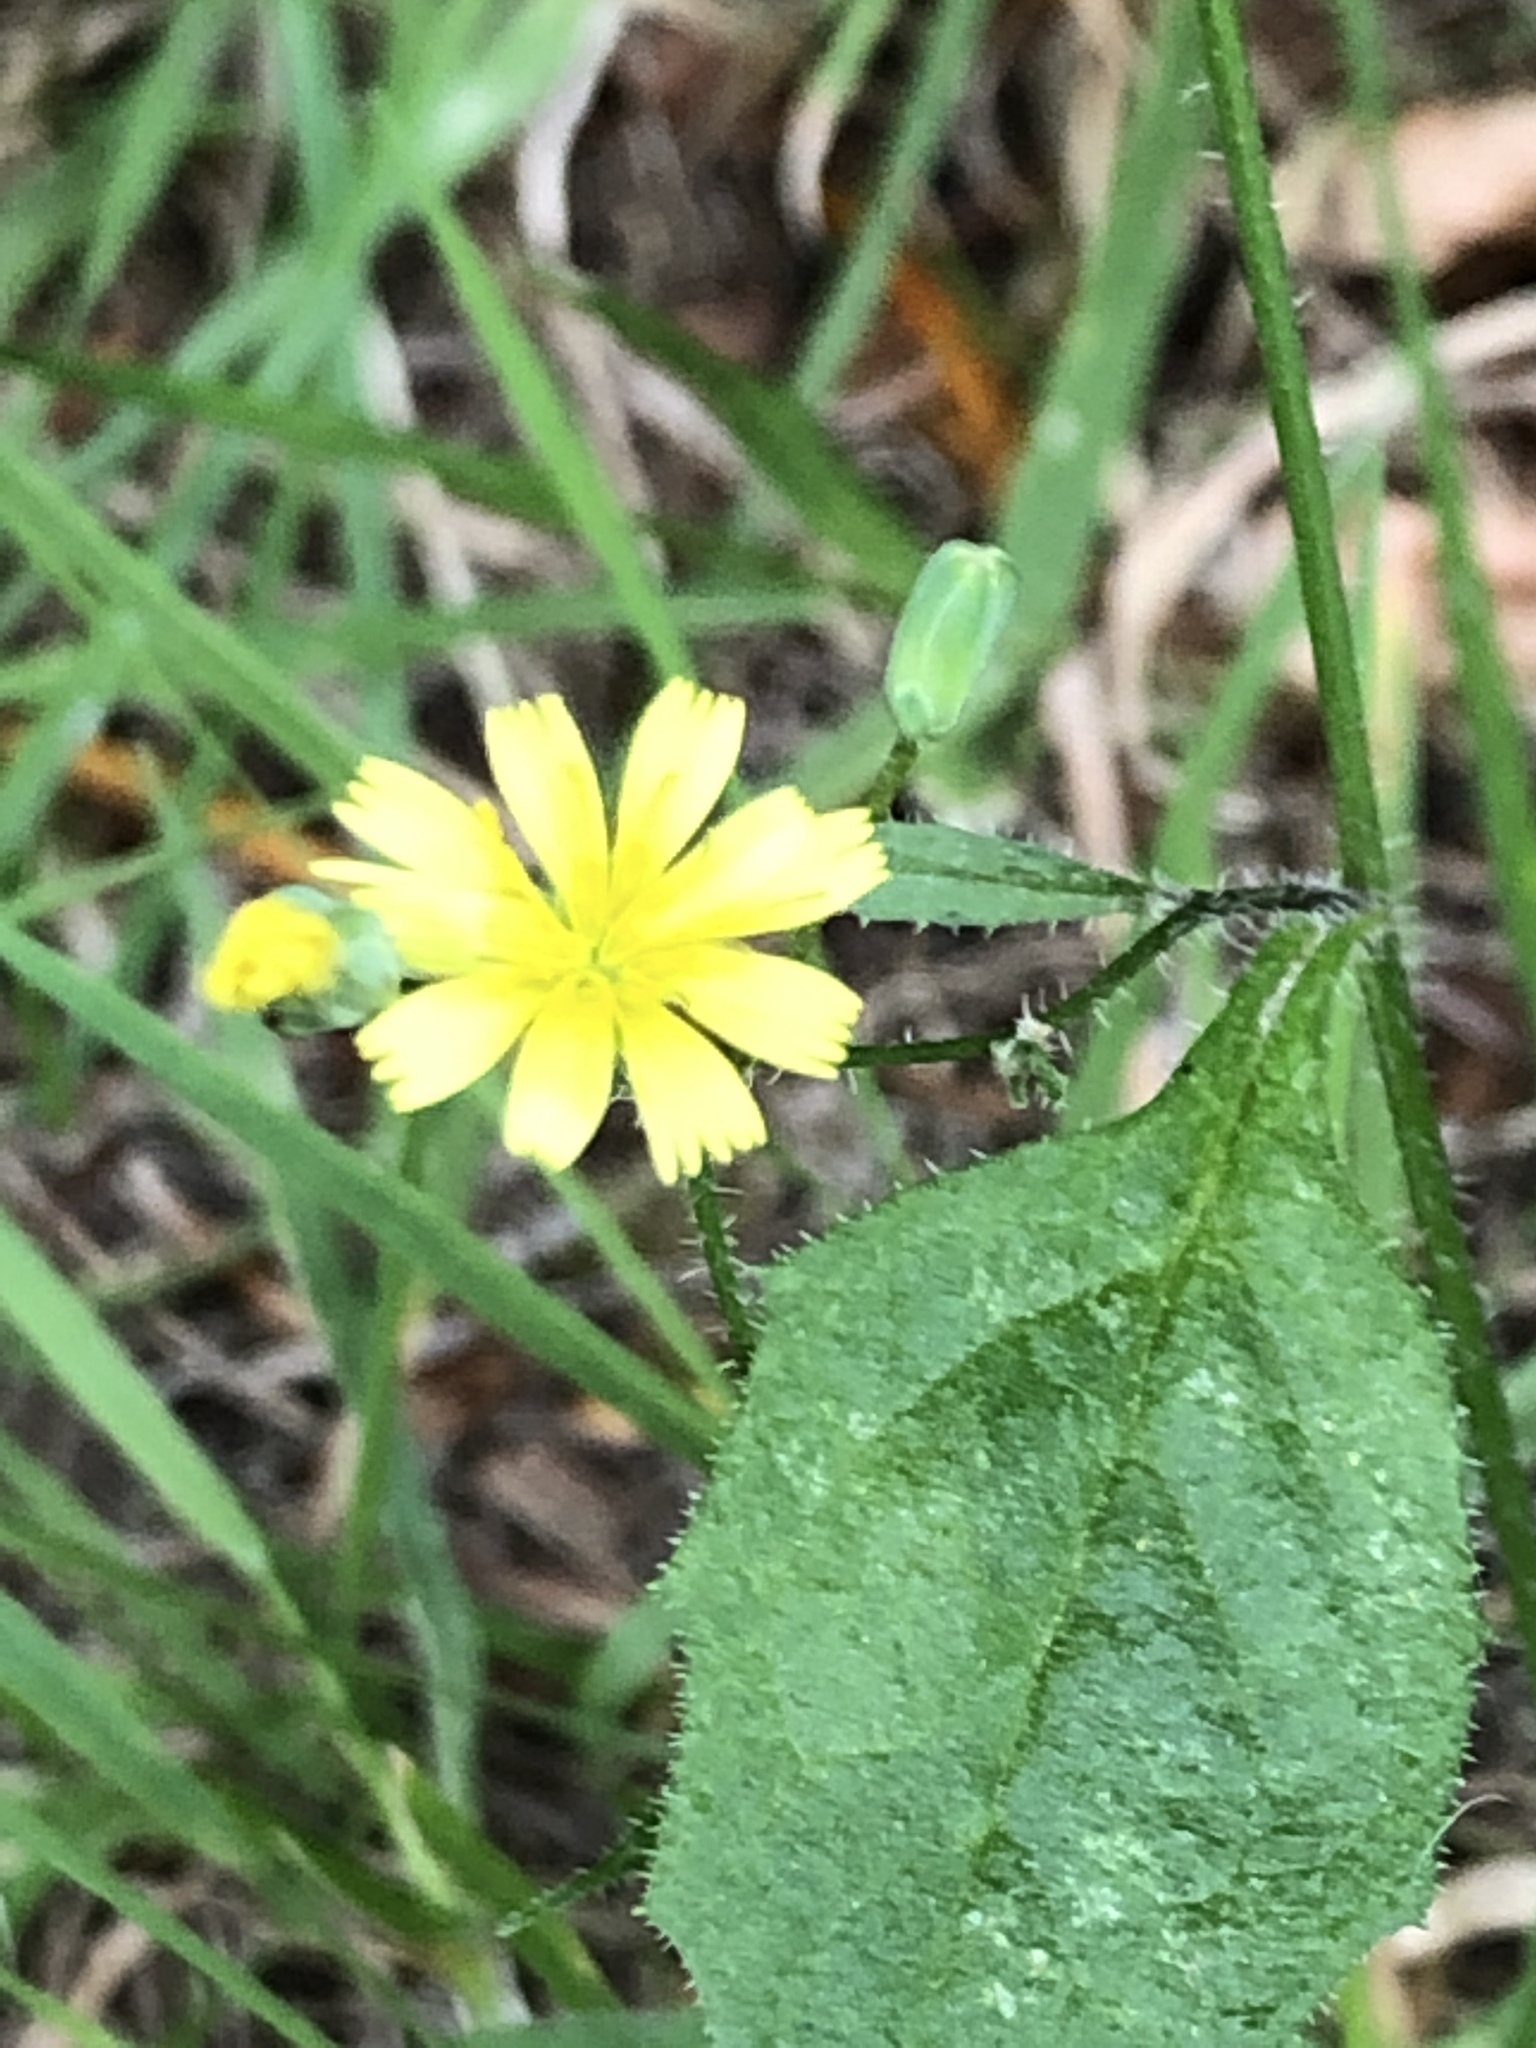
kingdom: Plantae
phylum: Tracheophyta
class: Magnoliopsida
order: Asterales
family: Asteraceae
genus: Lapsana
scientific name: Lapsana communis
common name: Nipplewort
